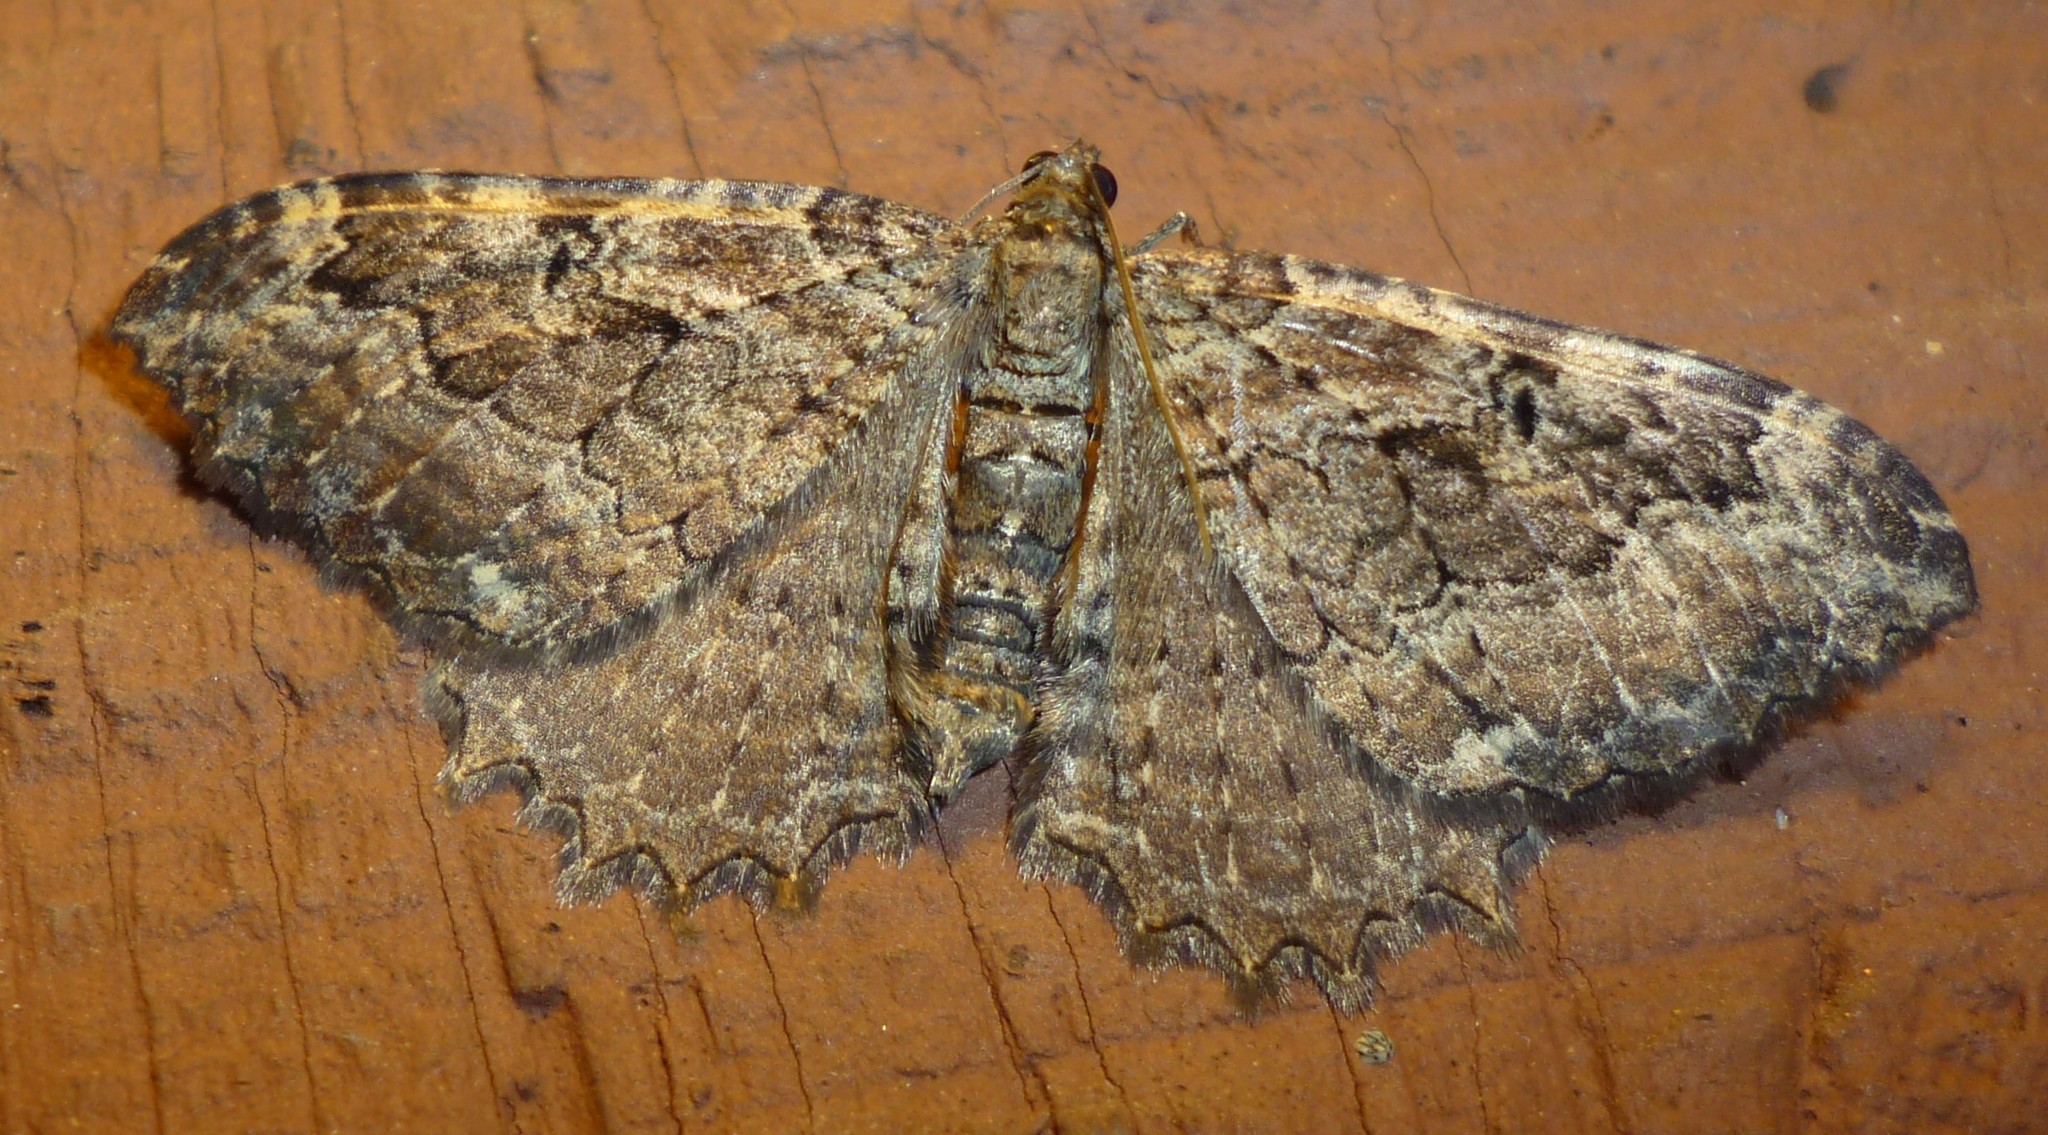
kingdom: Animalia
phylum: Arthropoda
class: Insecta
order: Lepidoptera
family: Geometridae
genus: Rheumaptera
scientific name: Rheumaptera
